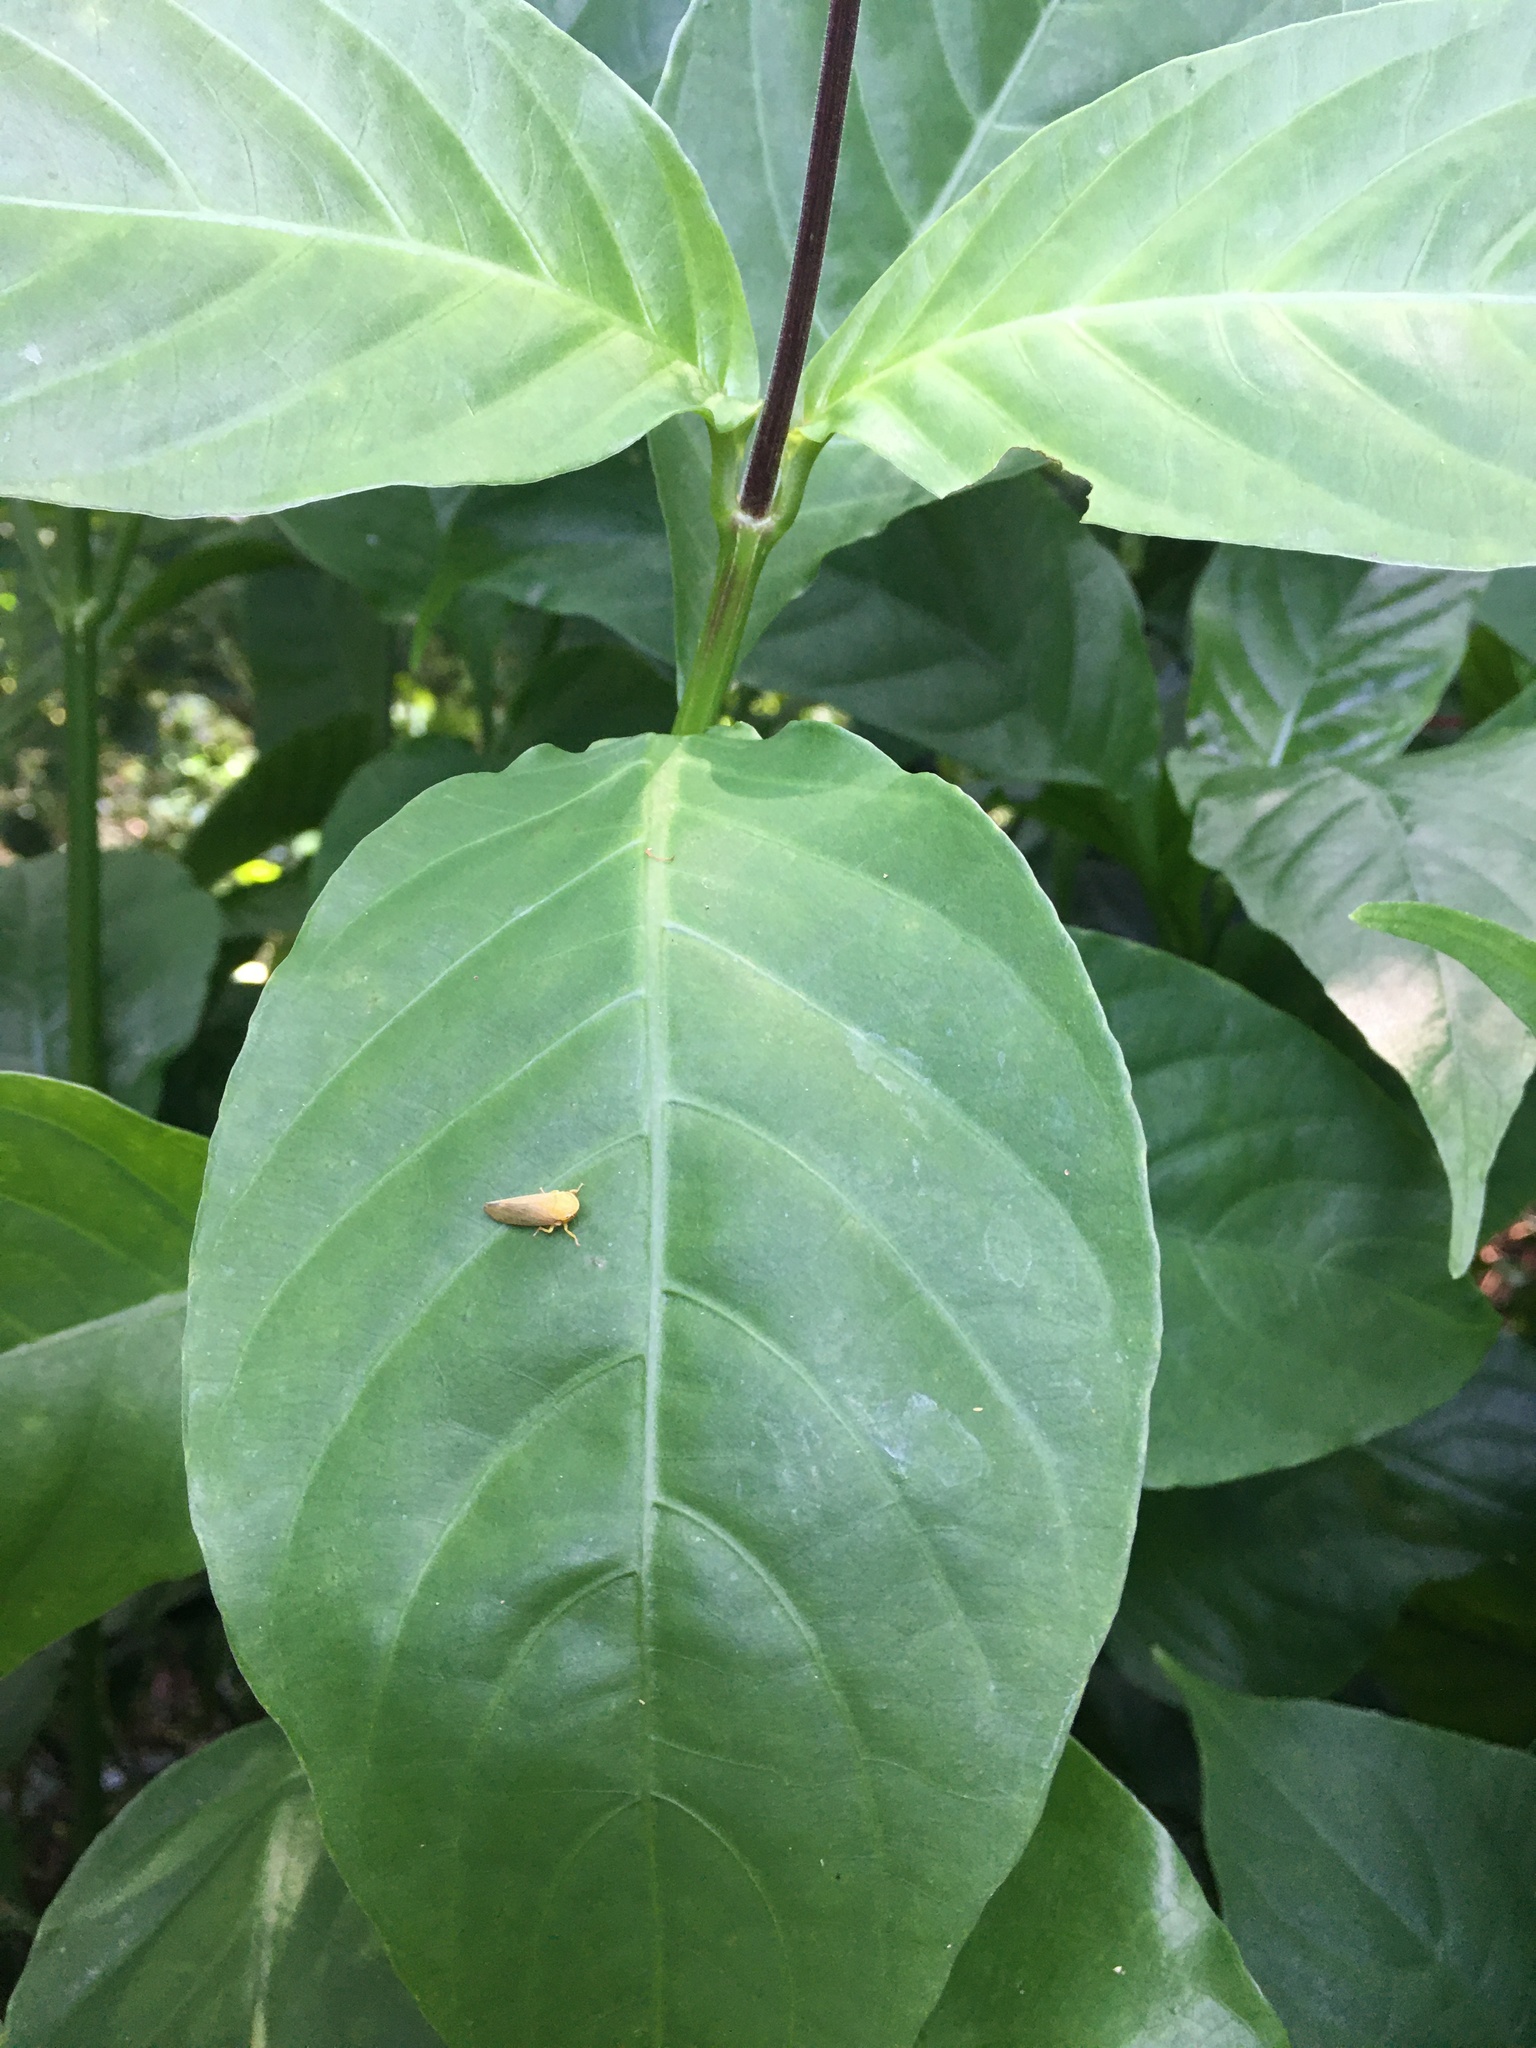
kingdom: Animalia
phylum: Arthropoda
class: Insecta
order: Hemiptera
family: Cicadellidae
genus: Tartessus
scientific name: Tartessus ferrugineus
